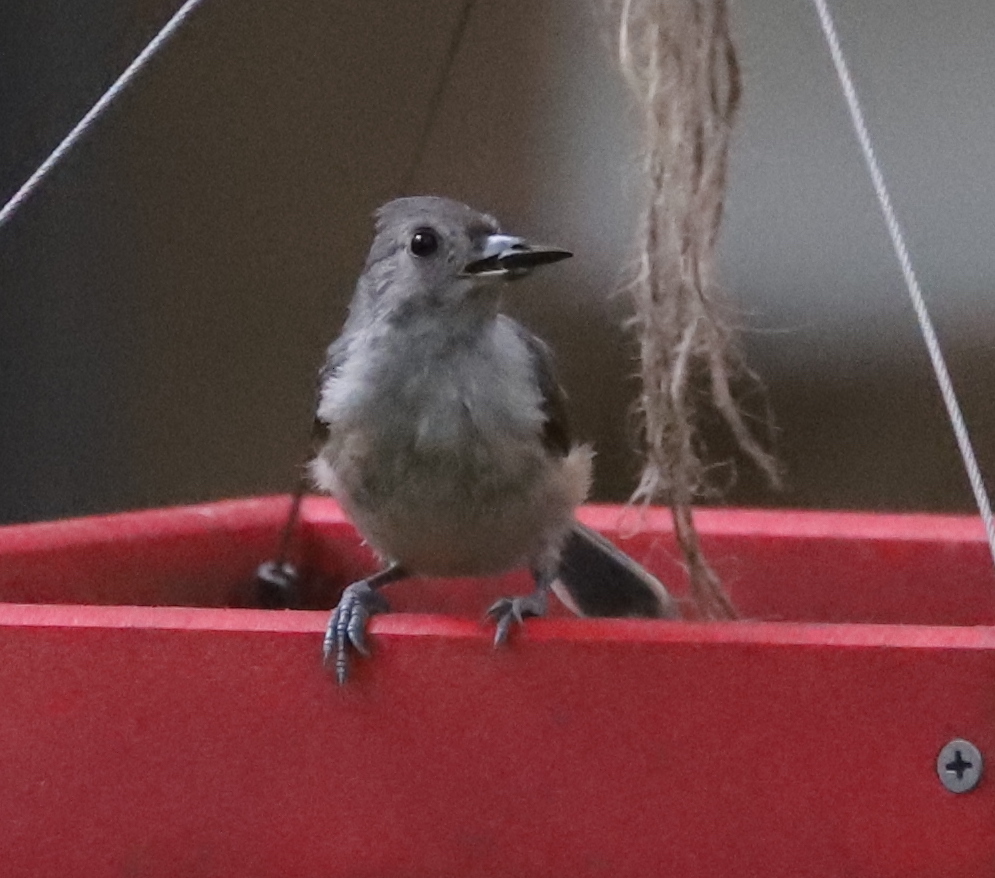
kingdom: Animalia
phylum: Chordata
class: Aves
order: Passeriformes
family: Paridae
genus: Baeolophus
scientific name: Baeolophus bicolor
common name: Tufted titmouse
